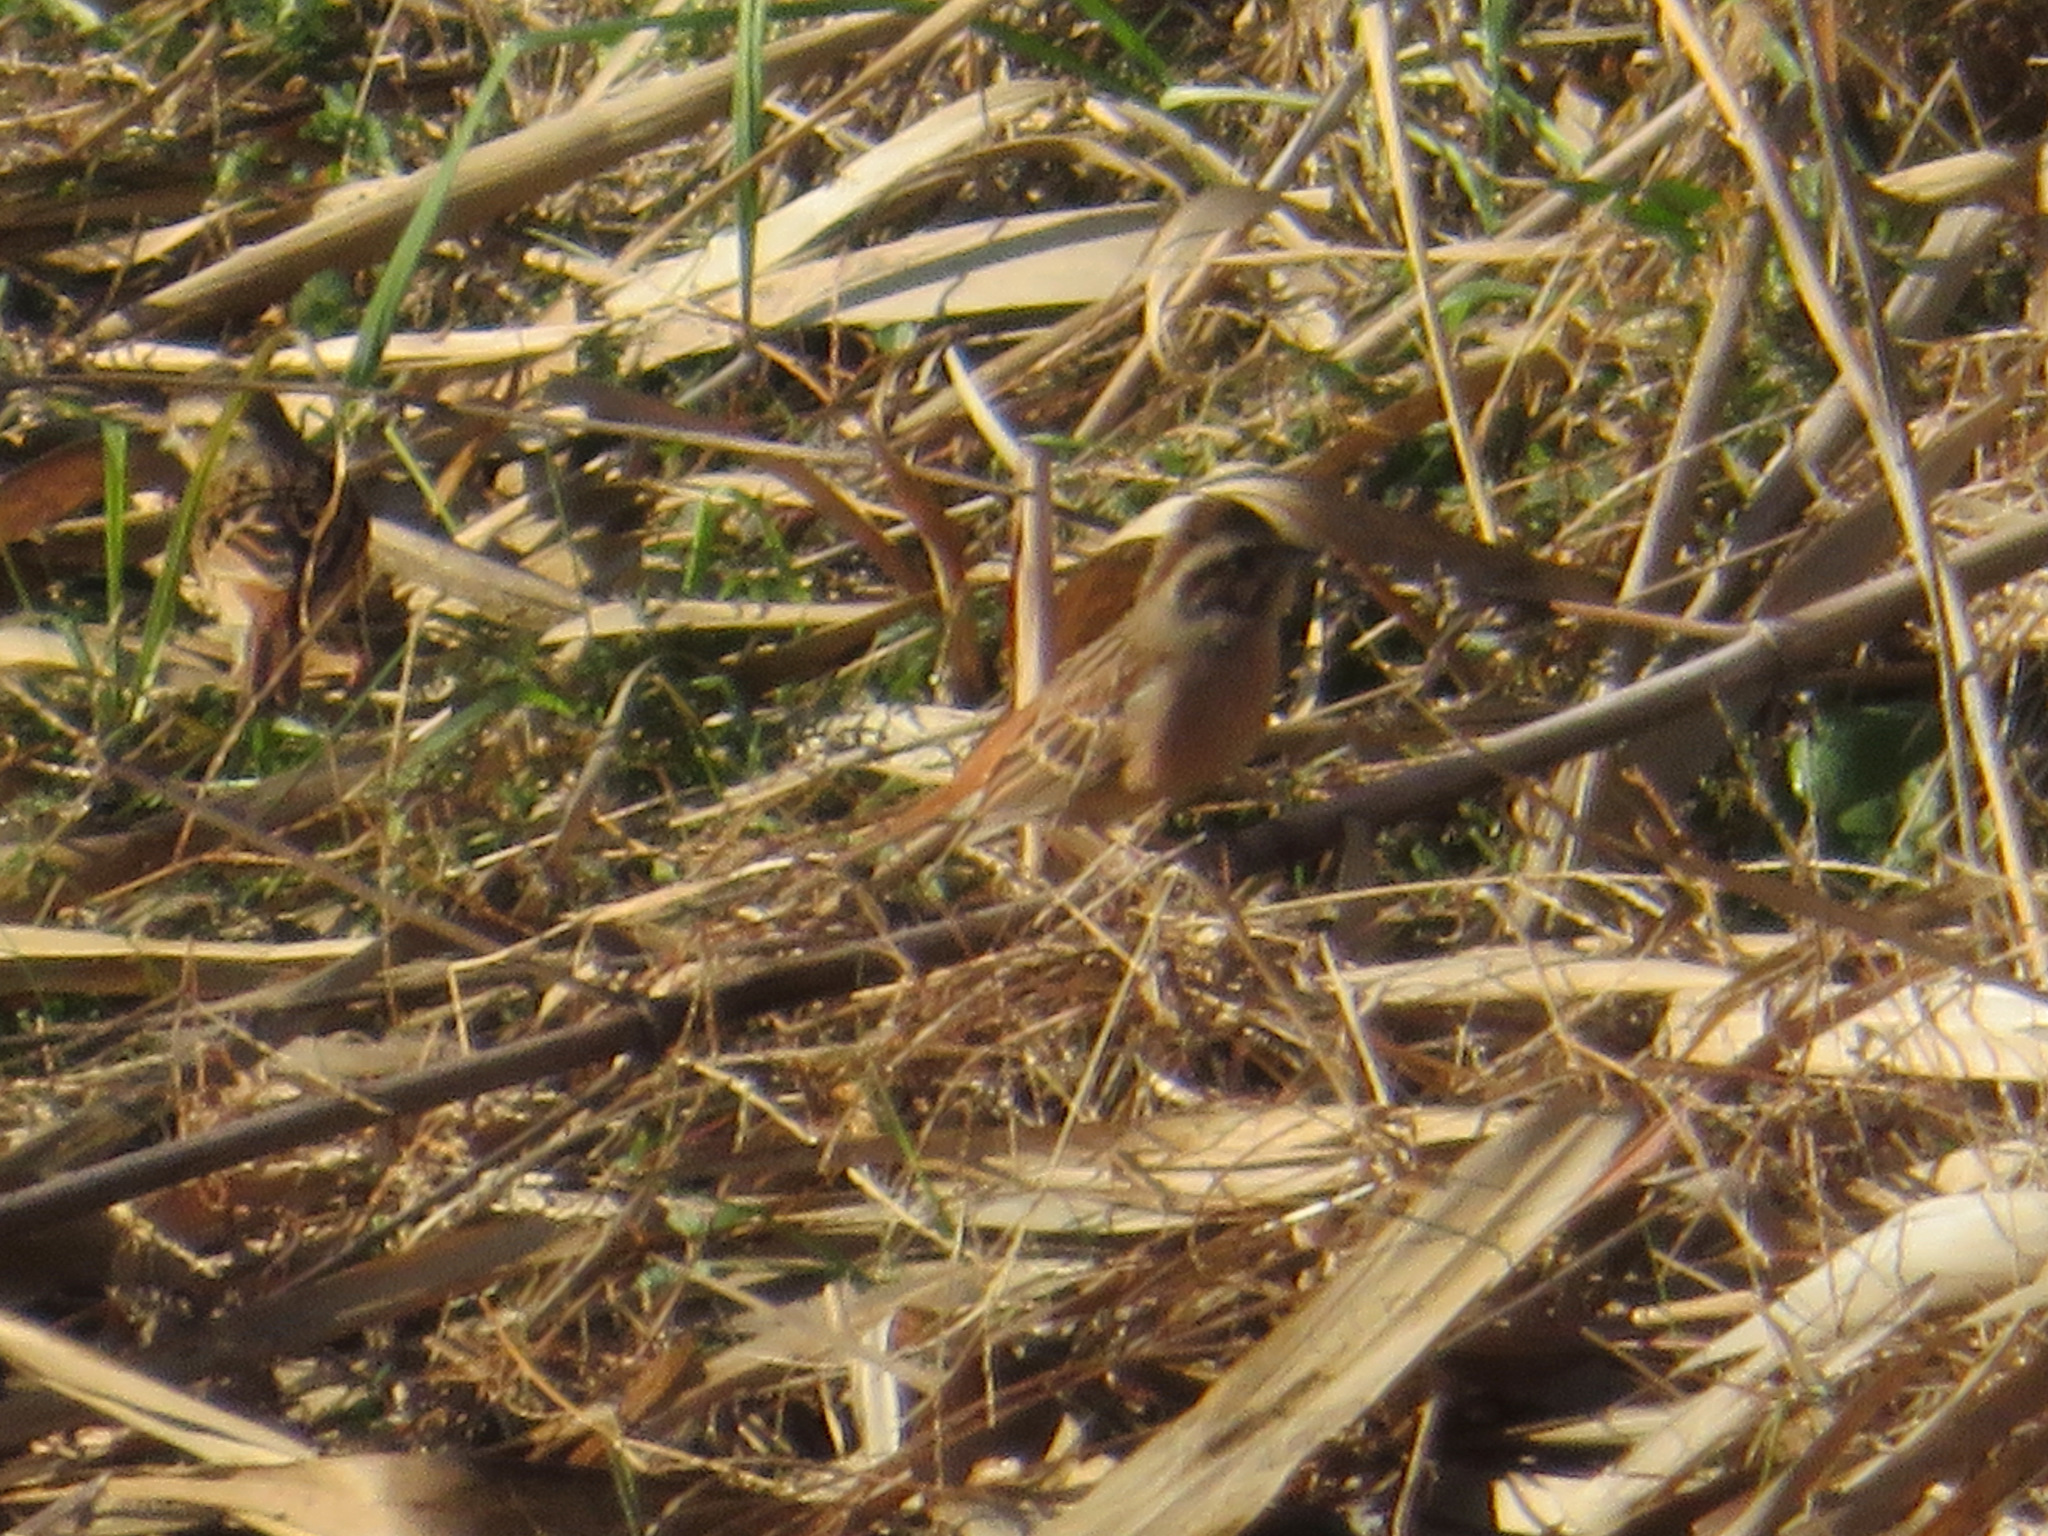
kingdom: Animalia
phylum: Chordata
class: Aves
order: Passeriformes
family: Emberizidae
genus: Emberiza
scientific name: Emberiza cioides
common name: Meadow bunting
